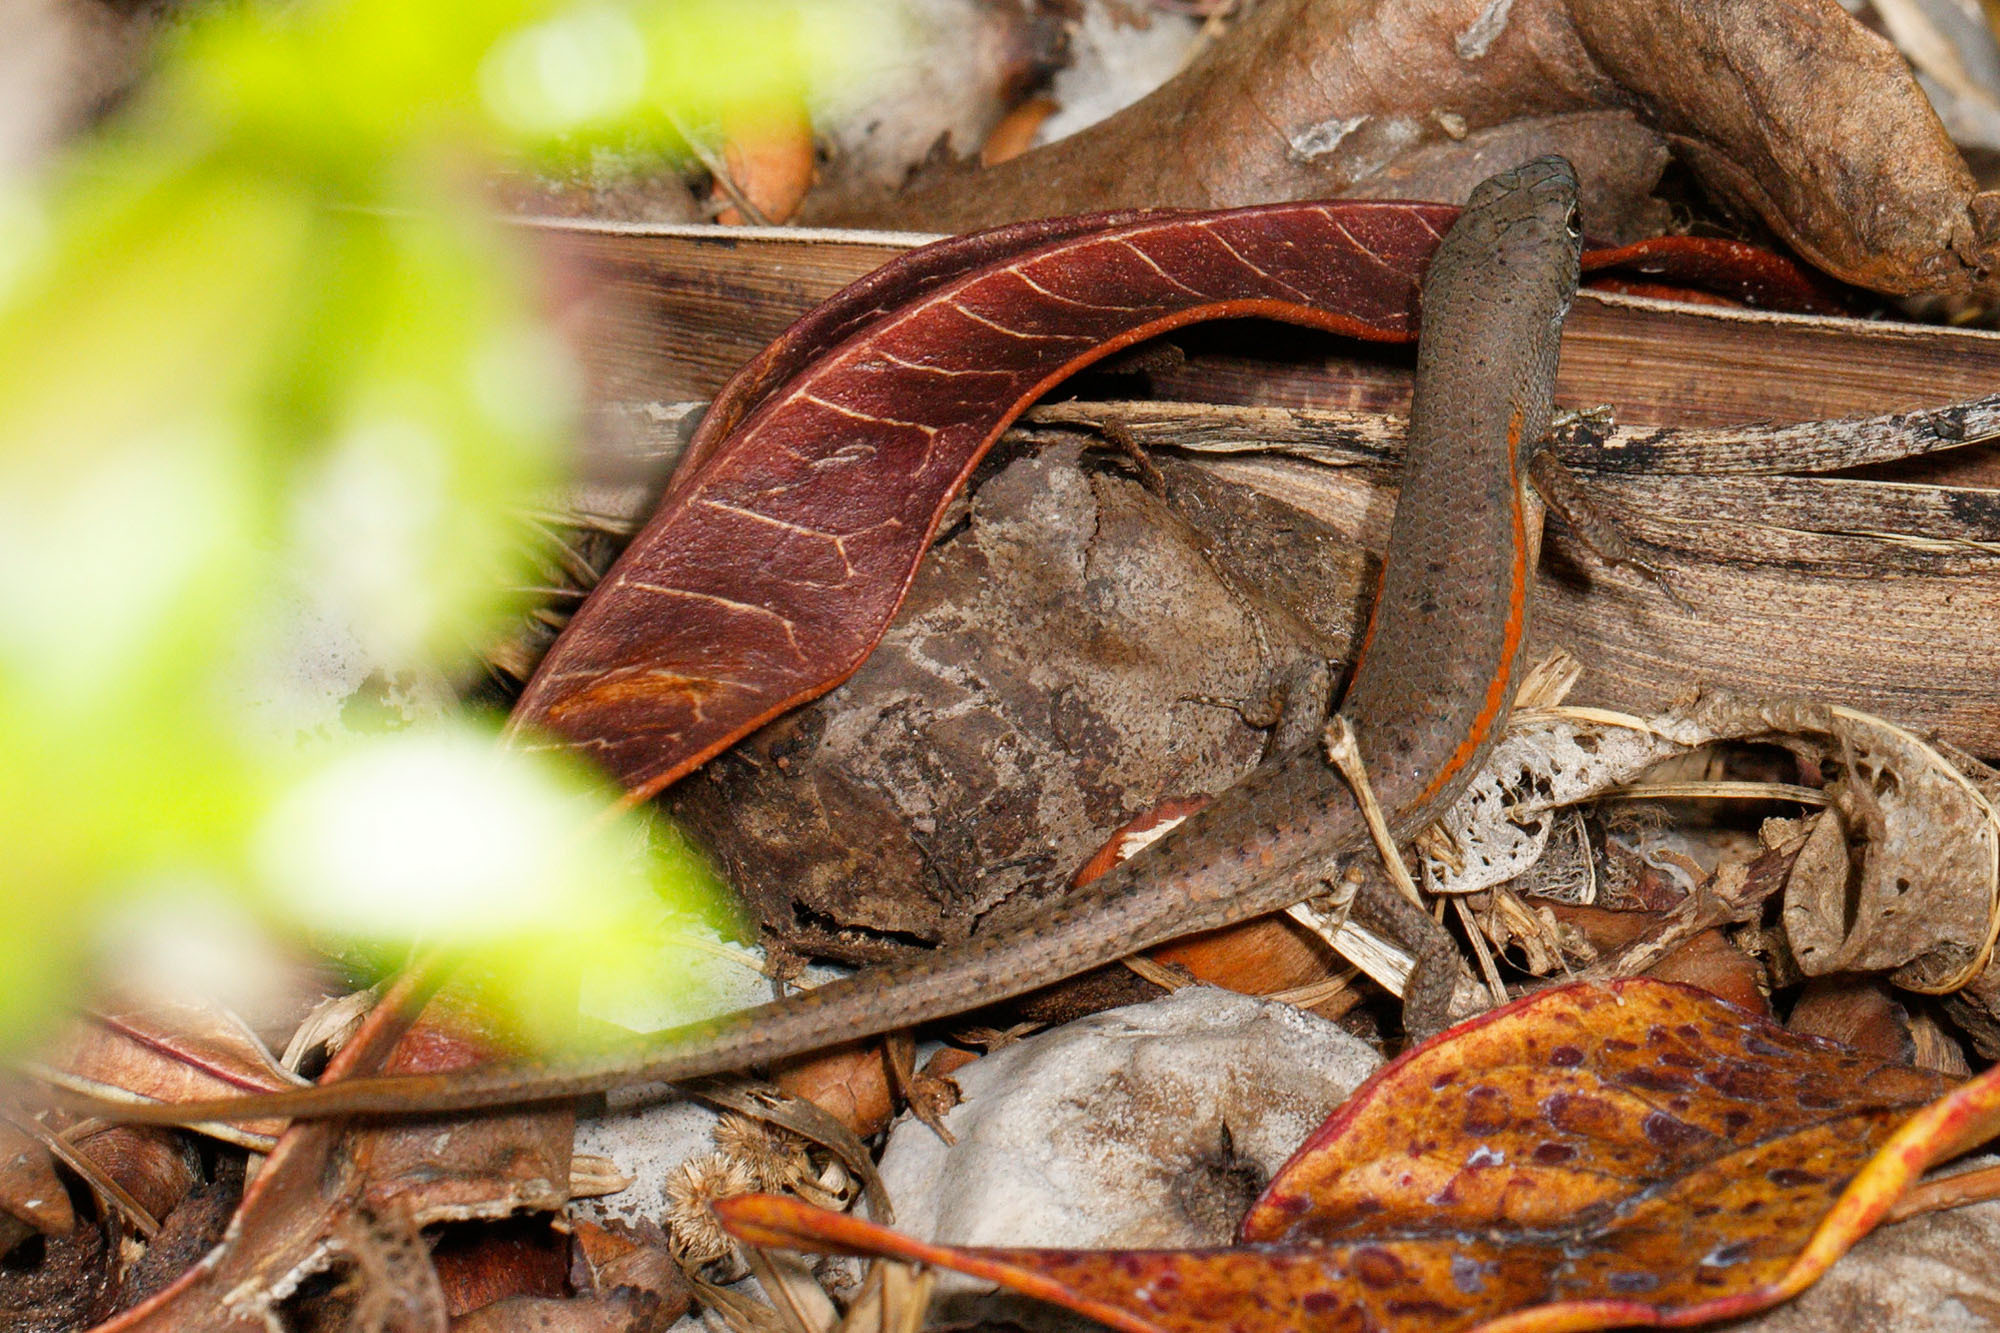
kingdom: Animalia
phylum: Chordata
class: Squamata
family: Scincidae
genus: Carlia
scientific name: Carlia decora
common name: Elegant rainbow skink
